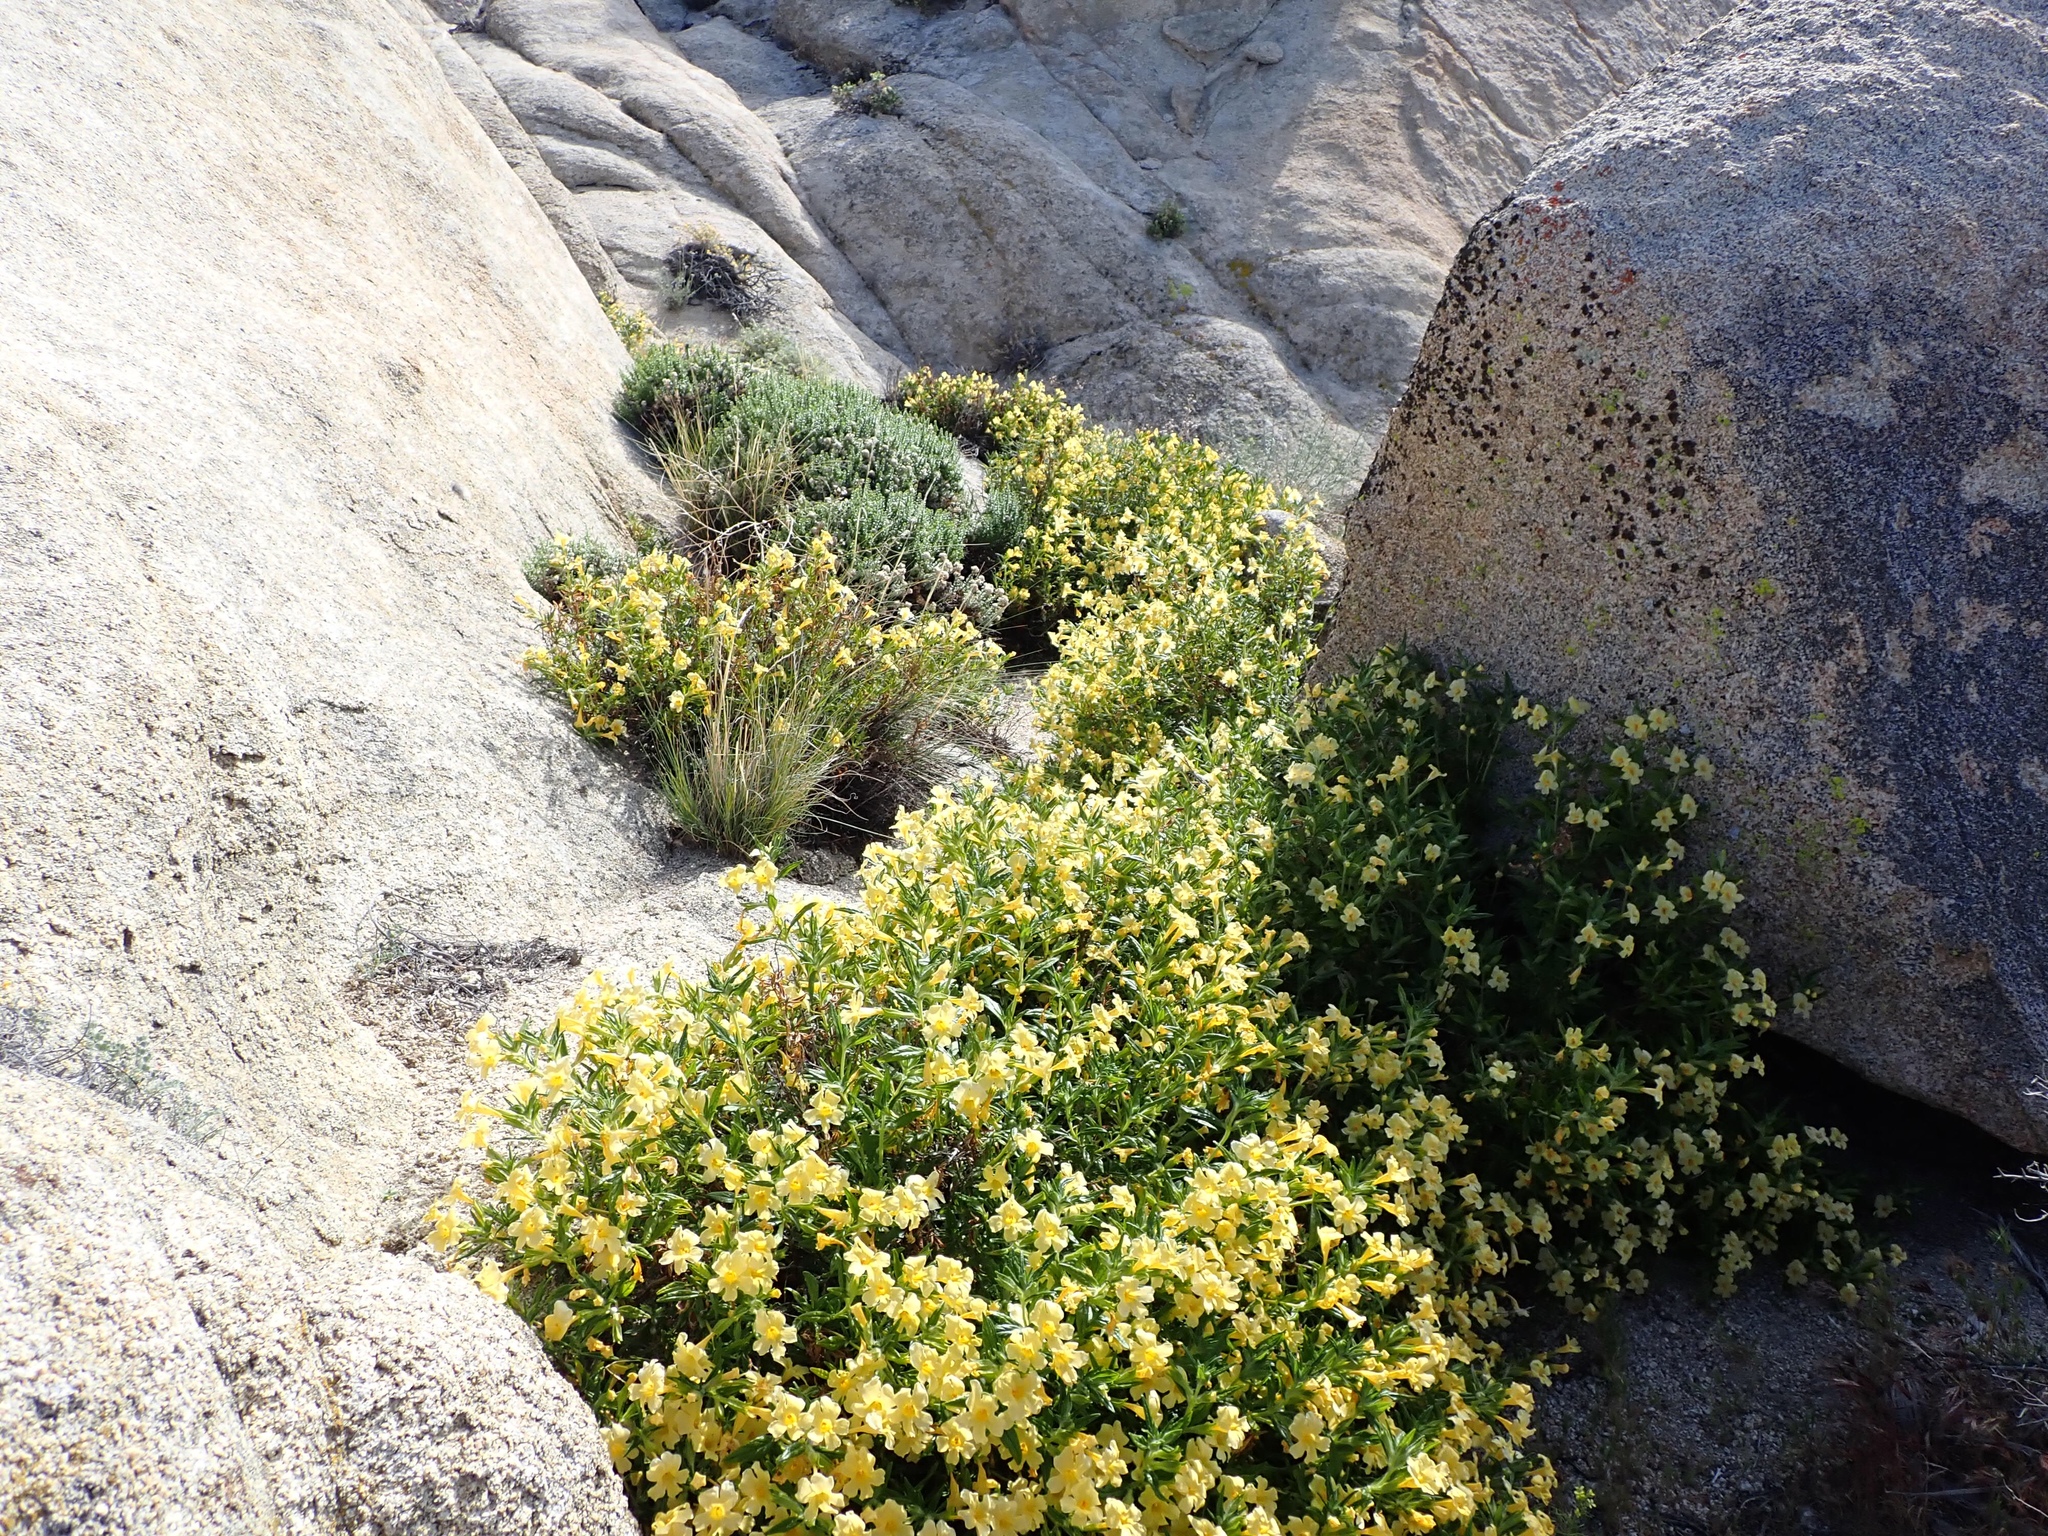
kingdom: Plantae
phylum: Tracheophyta
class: Magnoliopsida
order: Lamiales
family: Phrymaceae
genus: Diplacus
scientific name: Diplacus calycinus
